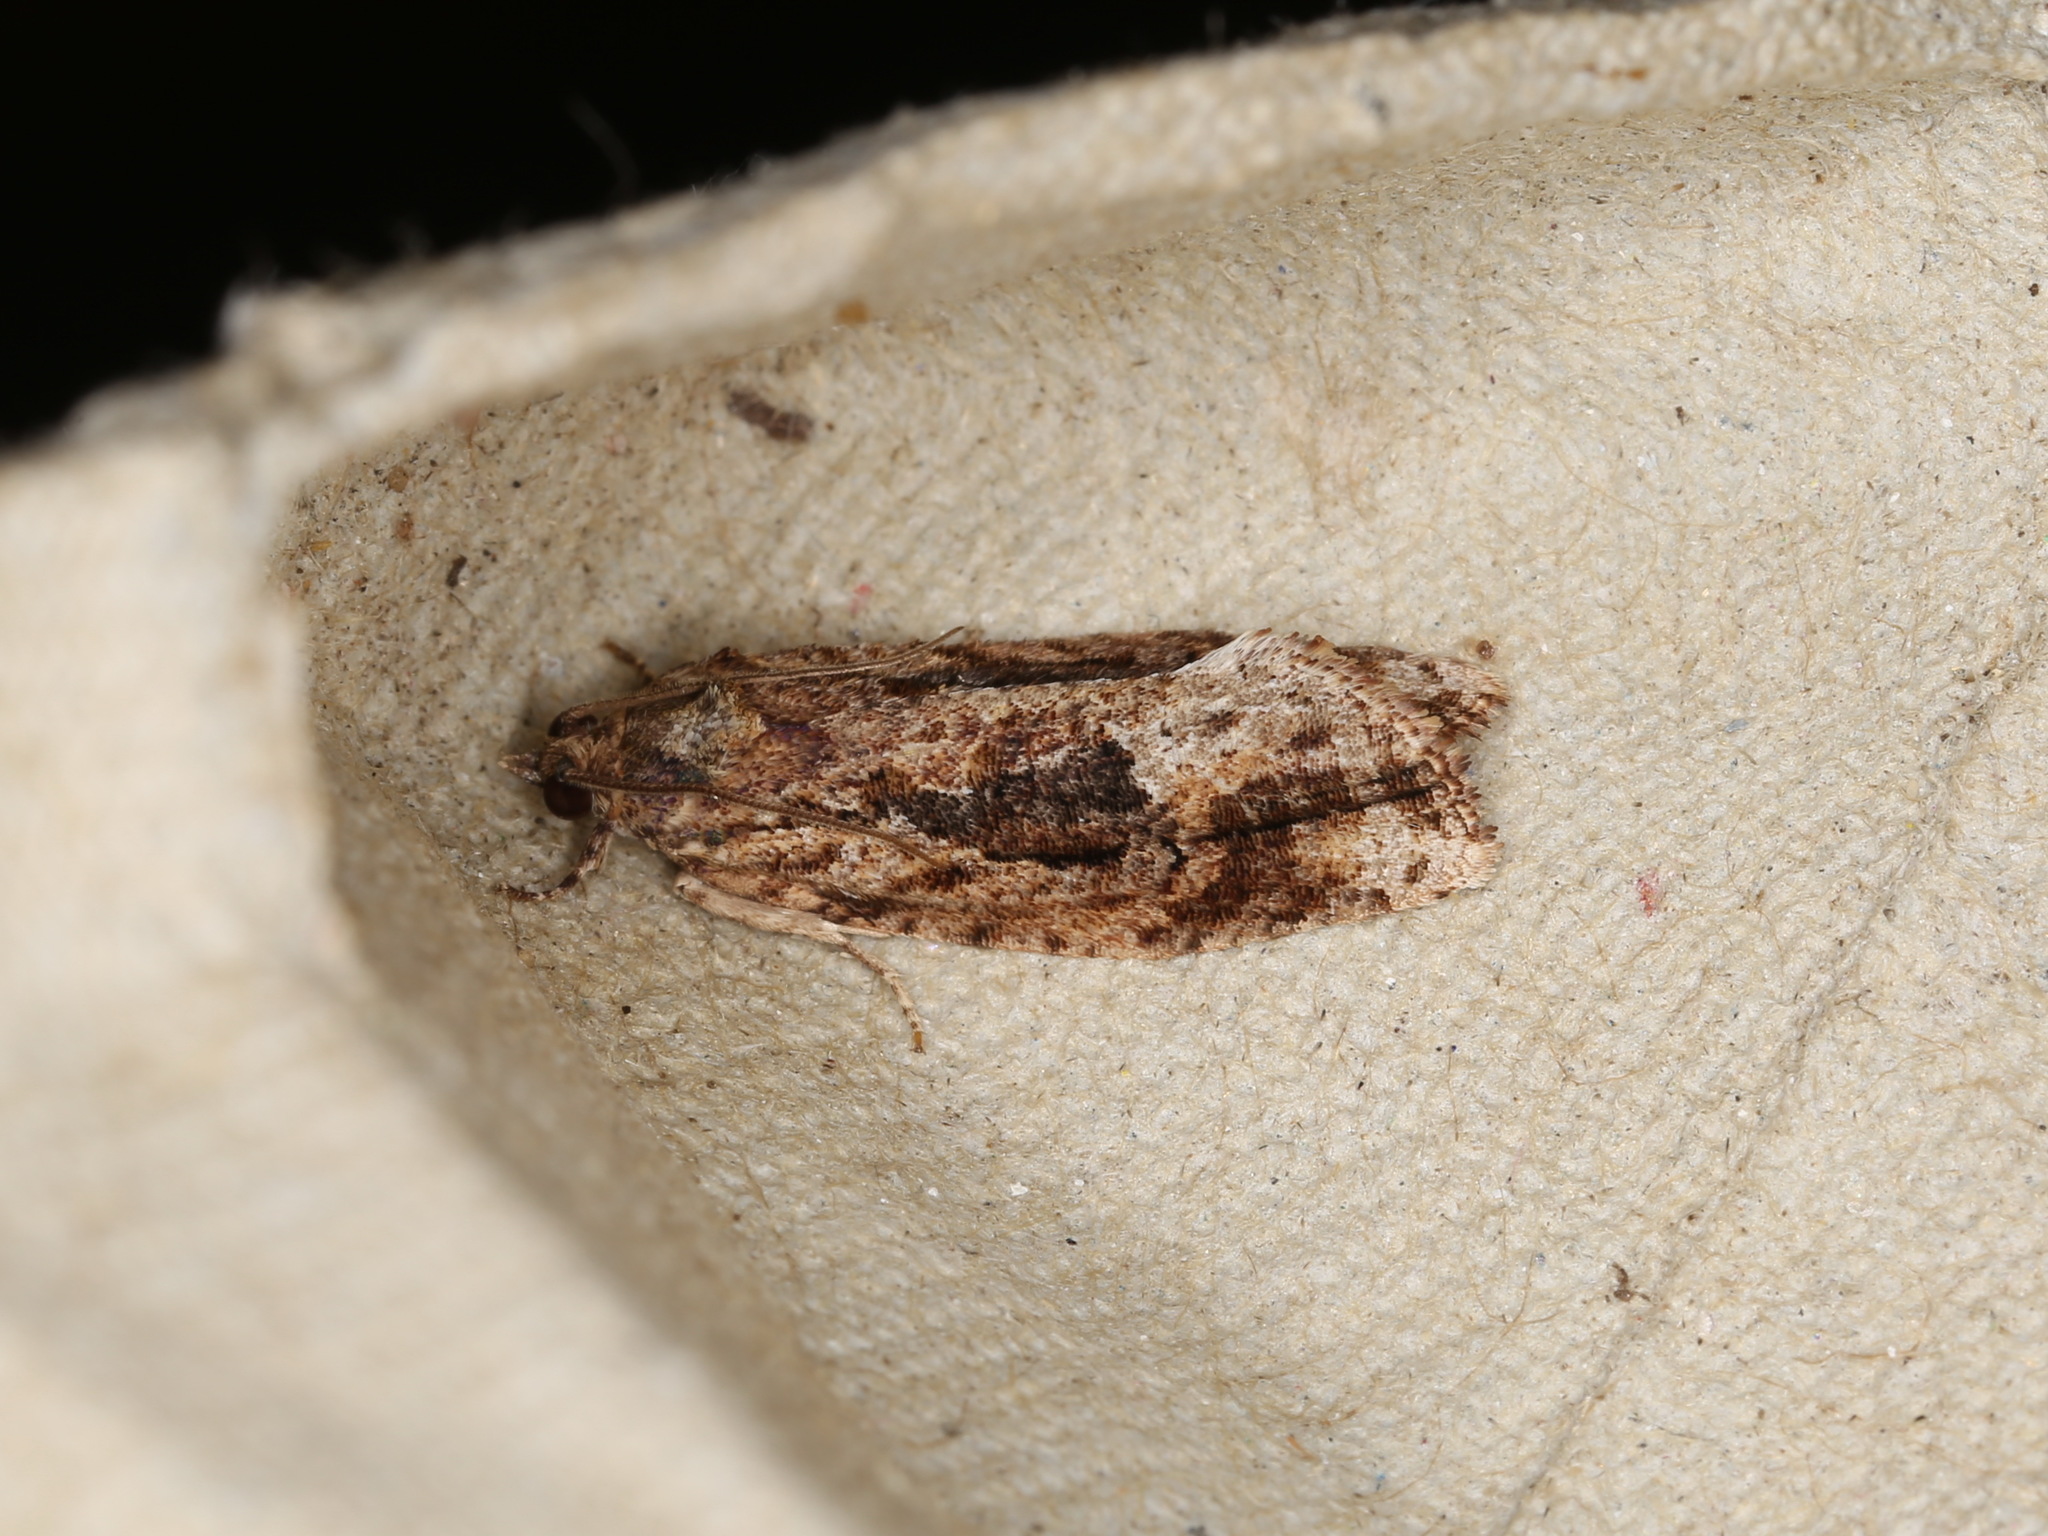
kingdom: Animalia
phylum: Arthropoda
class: Insecta
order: Lepidoptera
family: Tortricidae
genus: Thrincophora
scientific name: Thrincophora lignigerana
